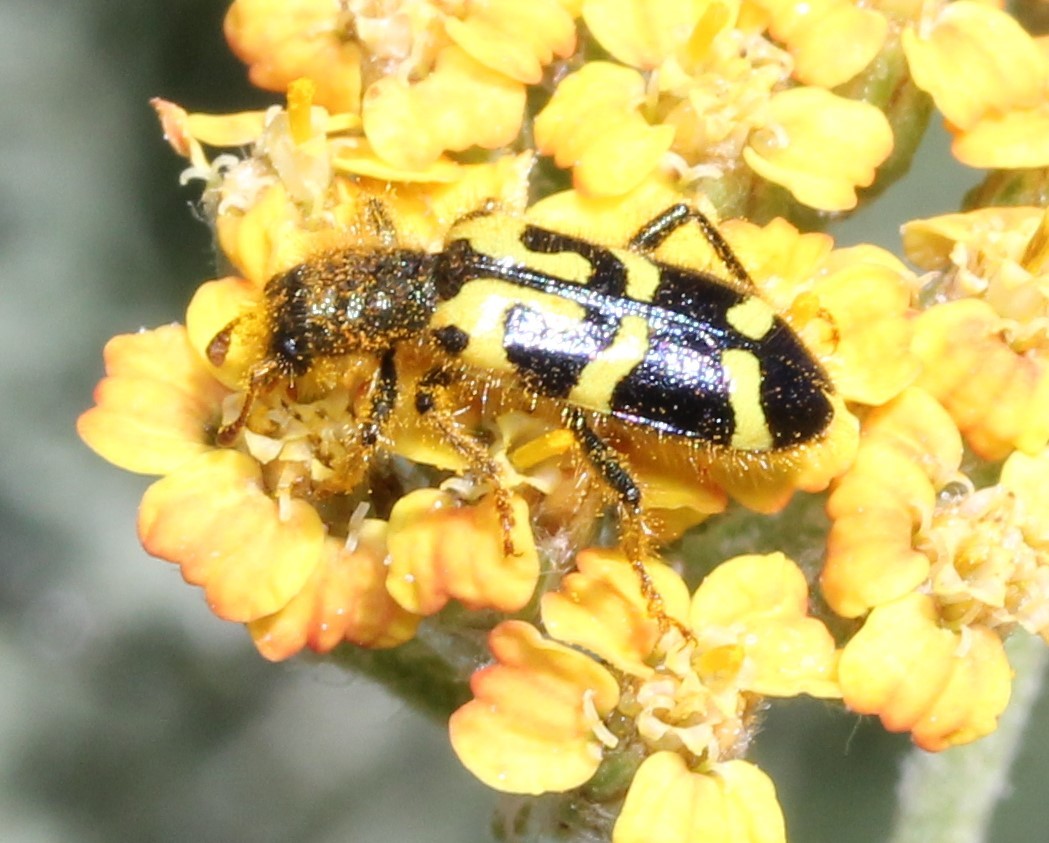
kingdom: Animalia
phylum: Arthropoda
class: Insecta
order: Coleoptera
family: Cleridae
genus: Trichodes
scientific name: Trichodes ornatus
